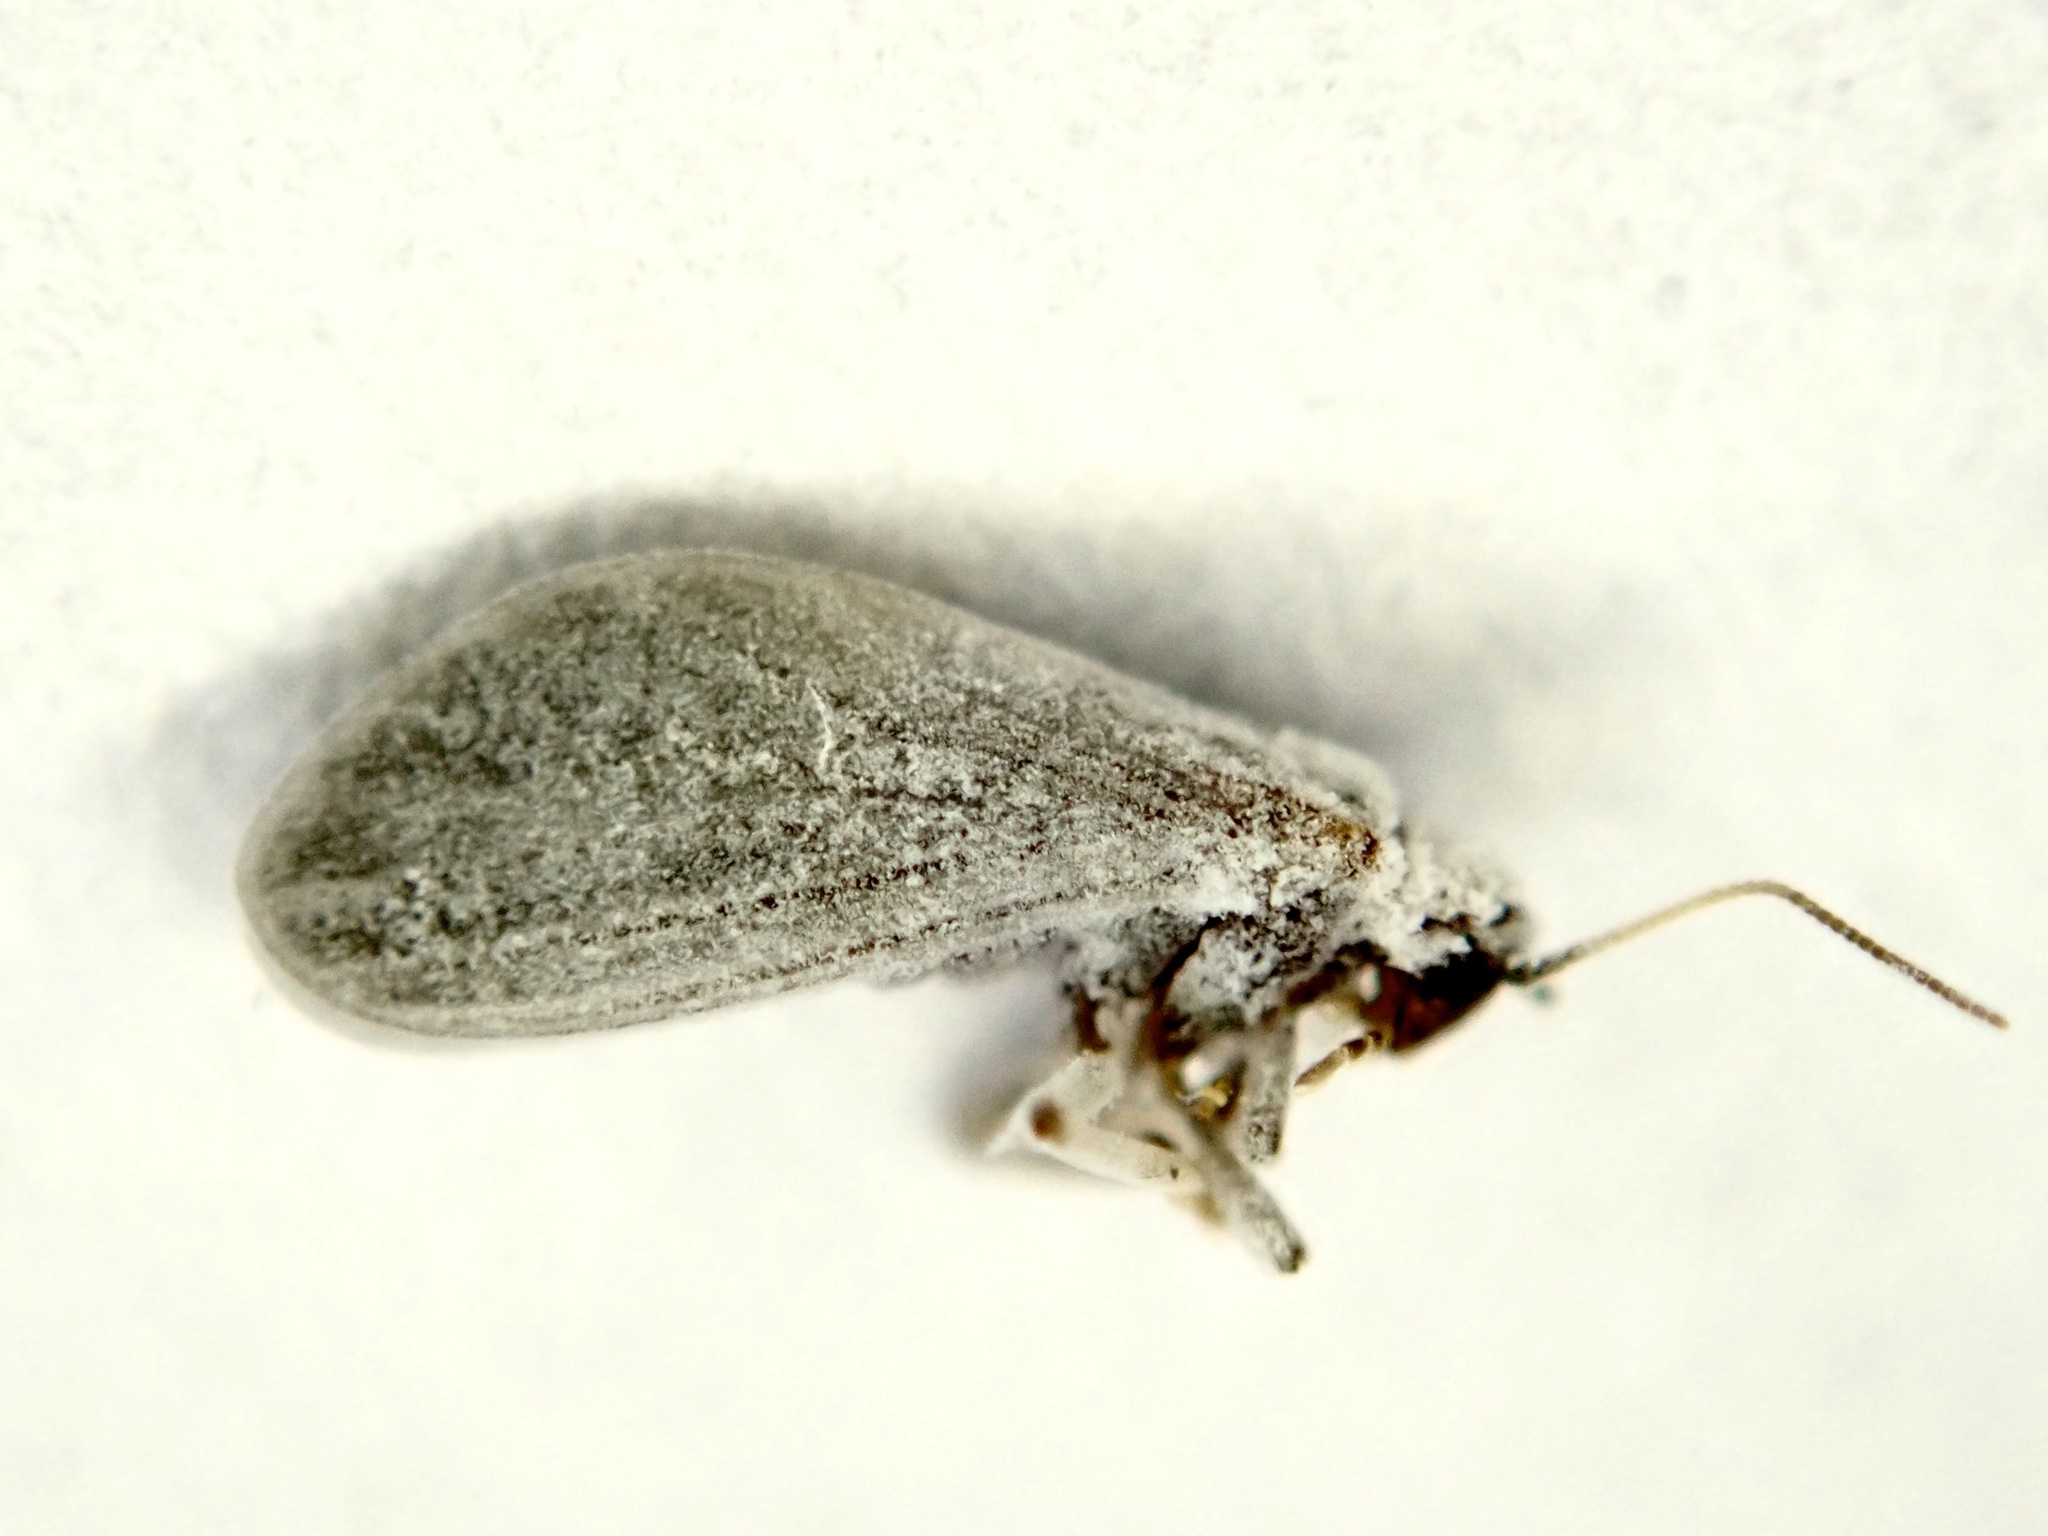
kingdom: Animalia
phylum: Arthropoda
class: Insecta
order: Neuroptera
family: Coniopterygidae
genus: Cryptoscenea
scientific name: Cryptoscenea australiensis
